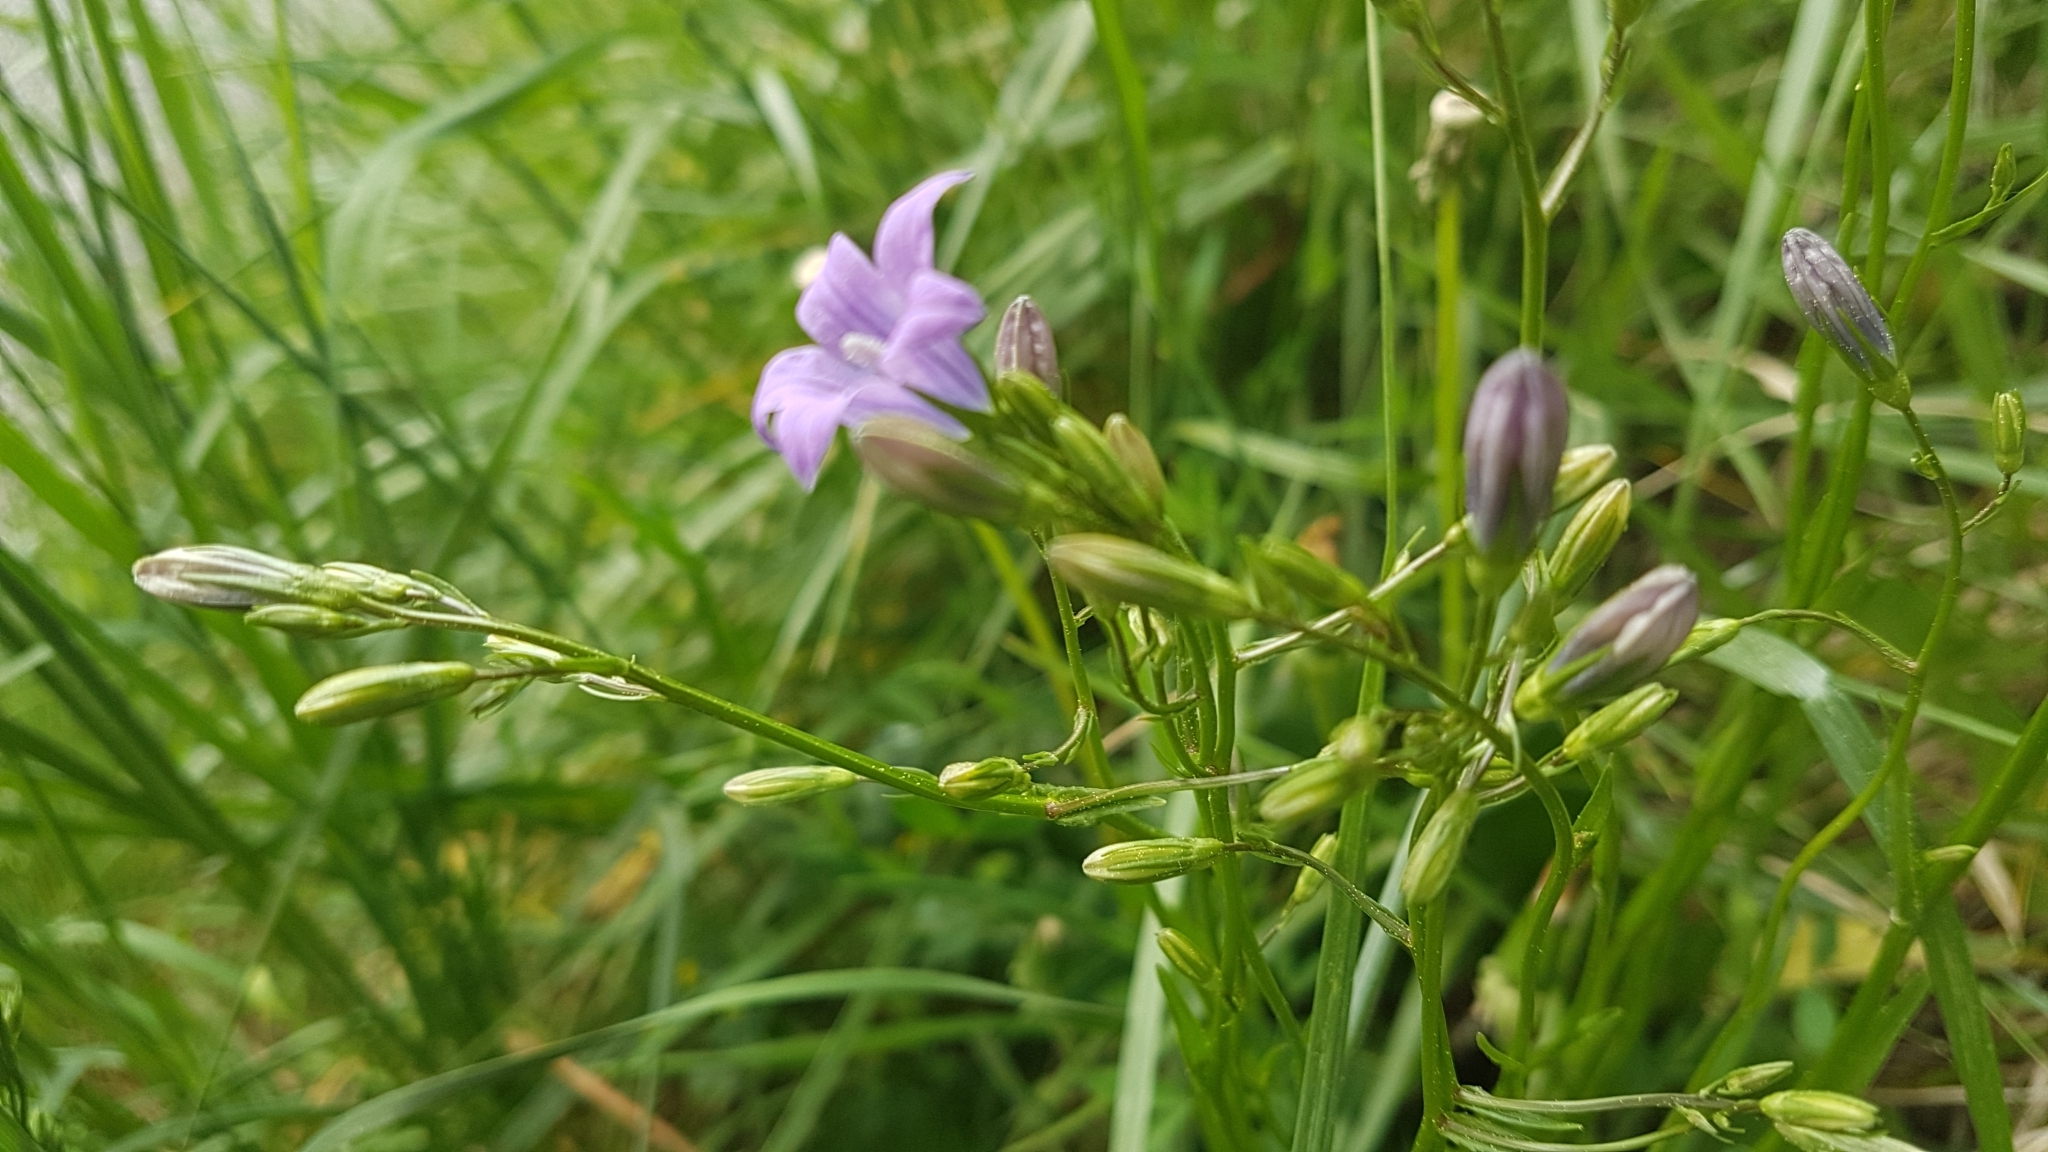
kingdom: Plantae
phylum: Tracheophyta
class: Magnoliopsida
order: Asterales
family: Campanulaceae
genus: Campanula
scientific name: Campanula patula
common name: Spreading bellflower
